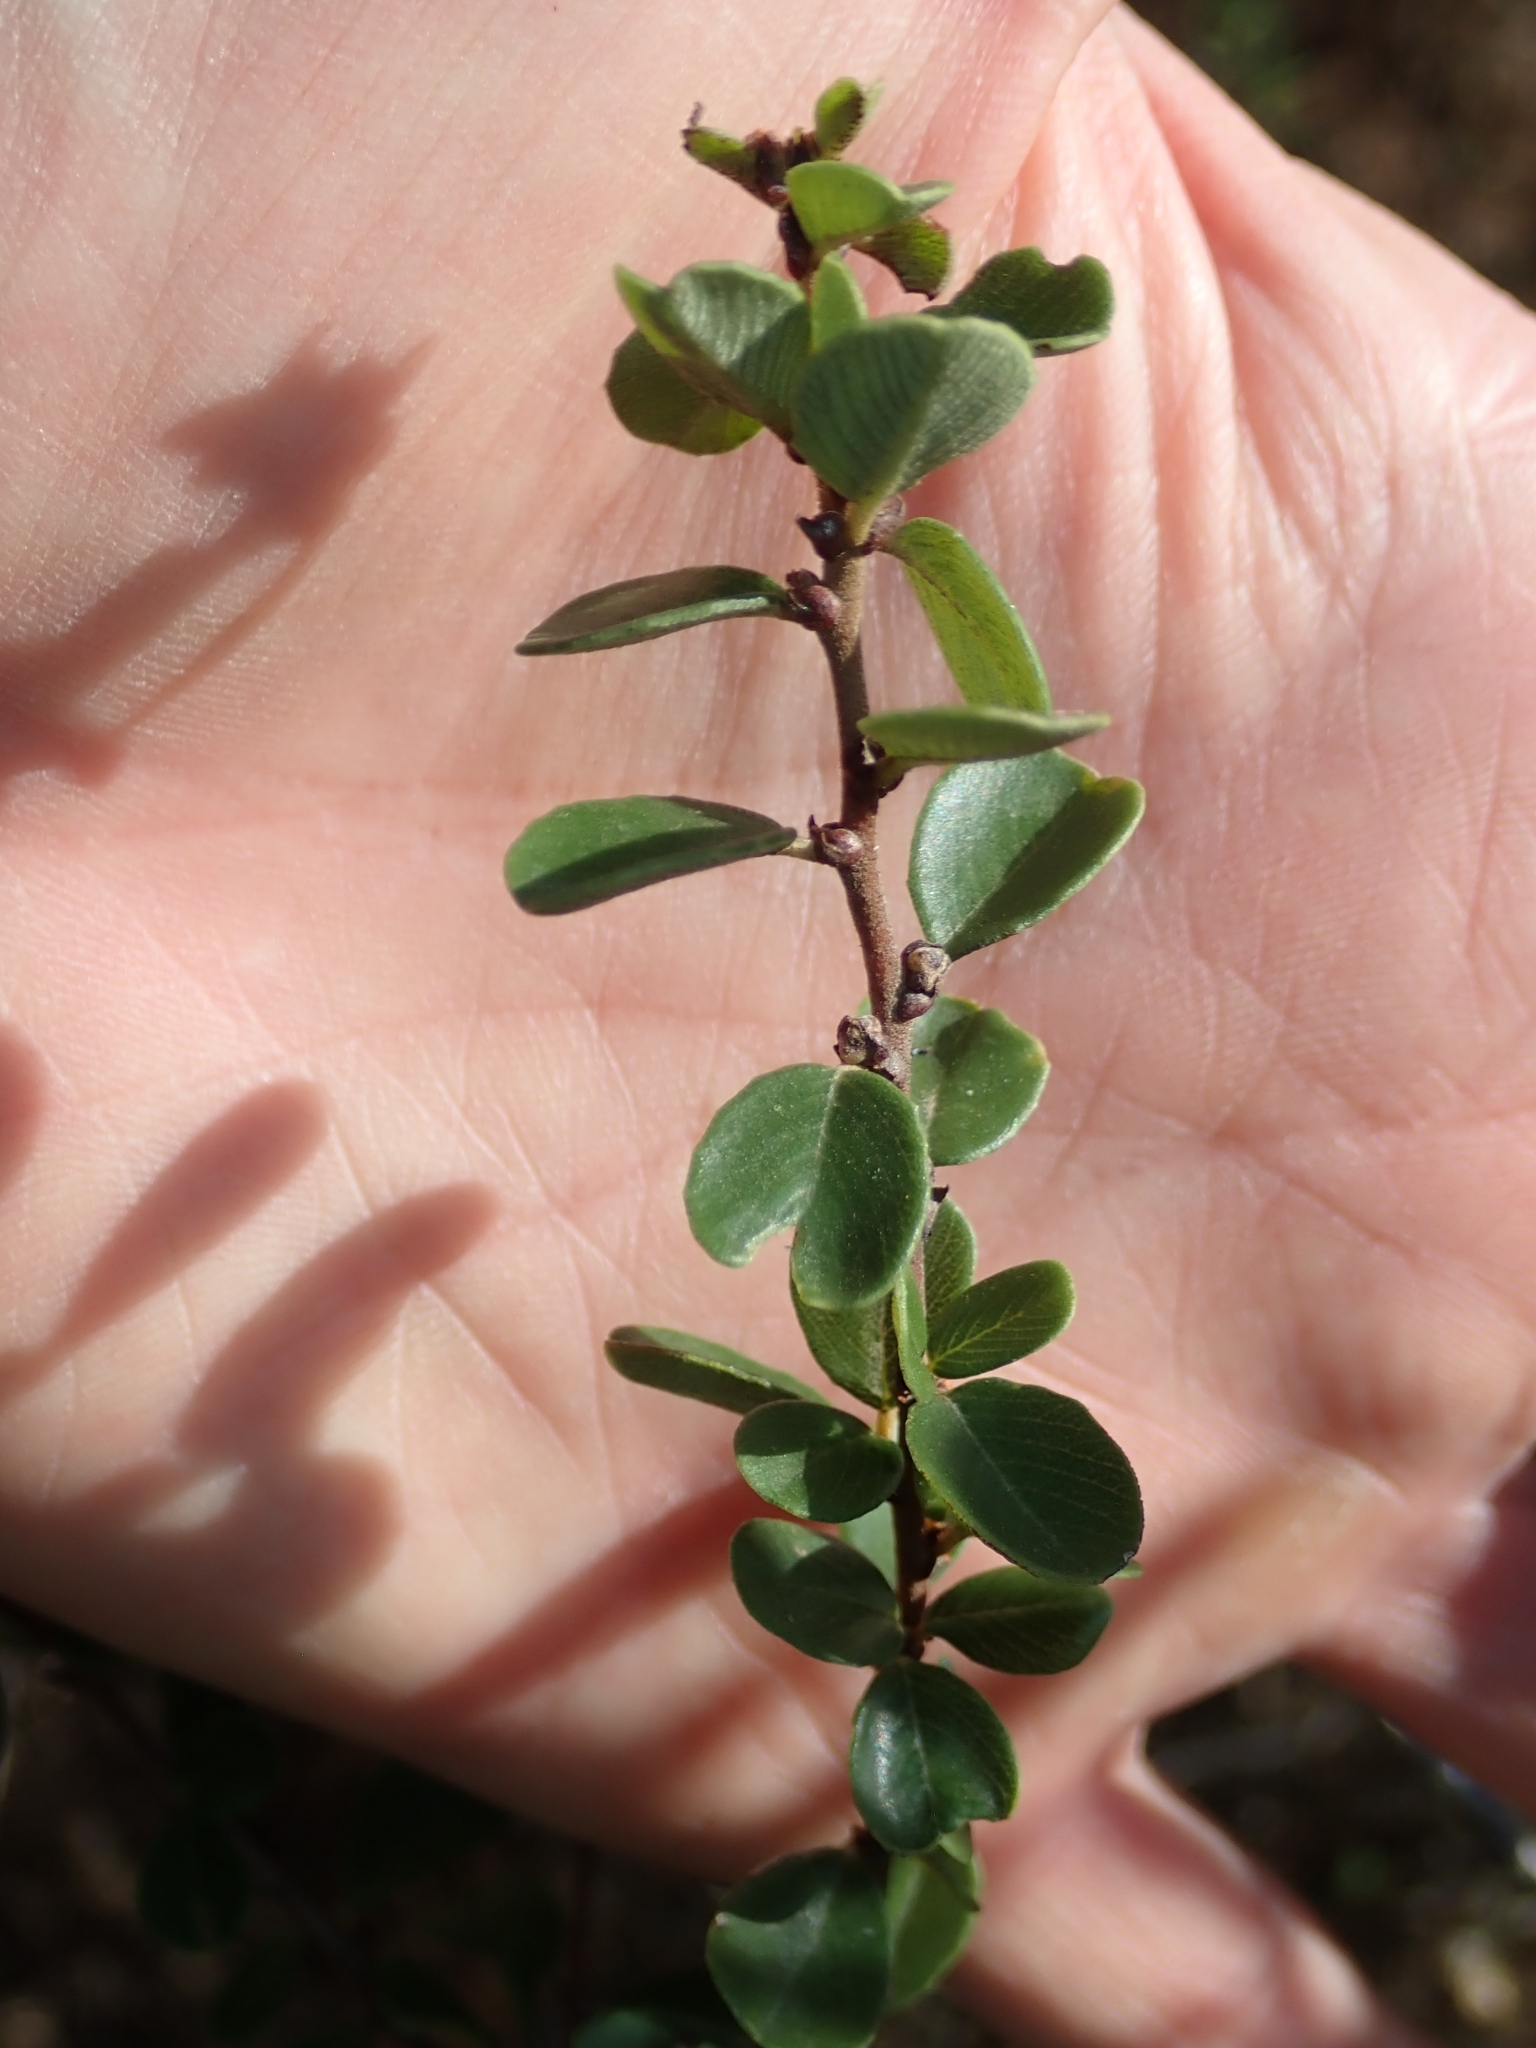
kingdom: Plantae
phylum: Tracheophyta
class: Magnoliopsida
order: Rosales
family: Rhamnaceae
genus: Ceanothus
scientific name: Ceanothus verrucosus
